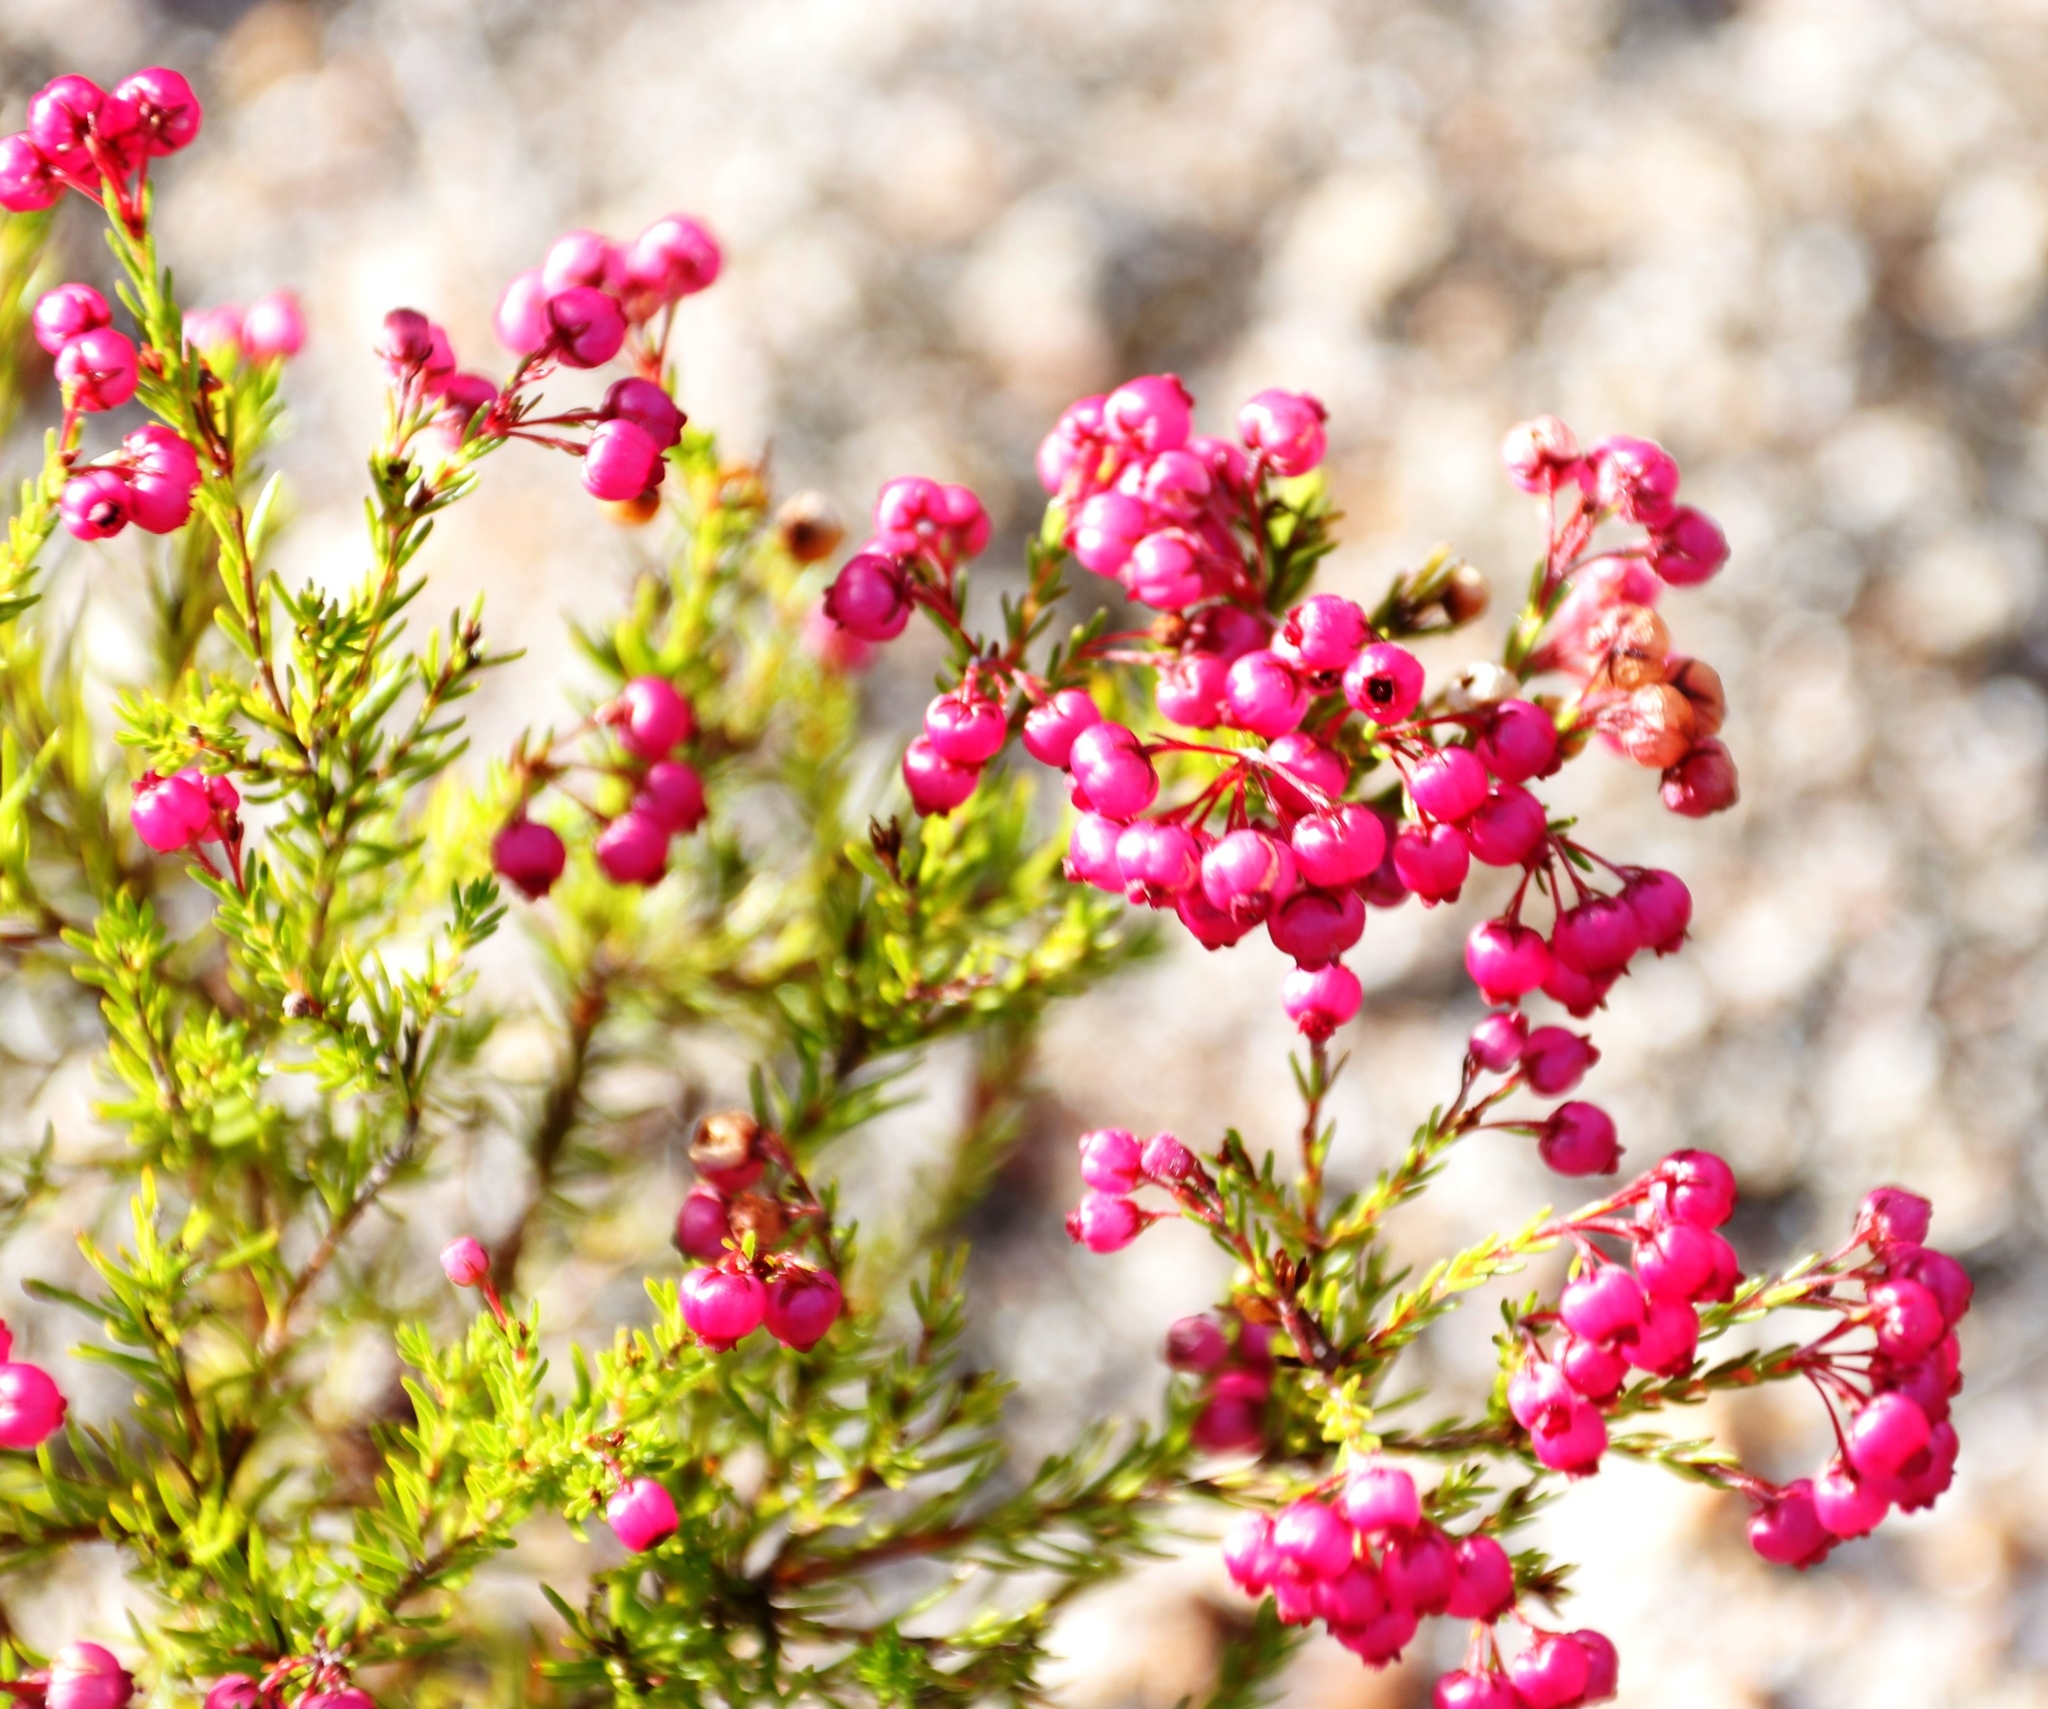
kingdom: Plantae
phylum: Tracheophyta
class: Magnoliopsida
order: Ericales
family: Ericaceae
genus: Erica
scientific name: Erica multumbellifera
